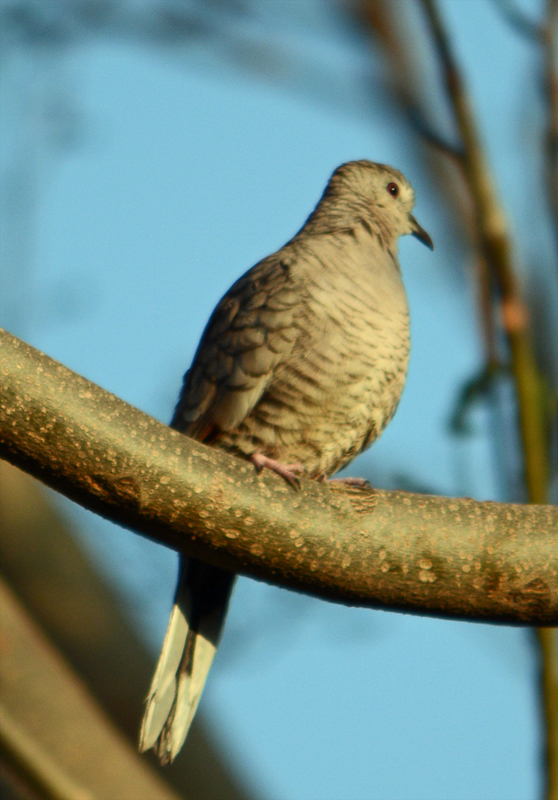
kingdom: Animalia
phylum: Chordata
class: Aves
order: Columbiformes
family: Columbidae
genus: Columbina
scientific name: Columbina inca
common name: Inca dove
